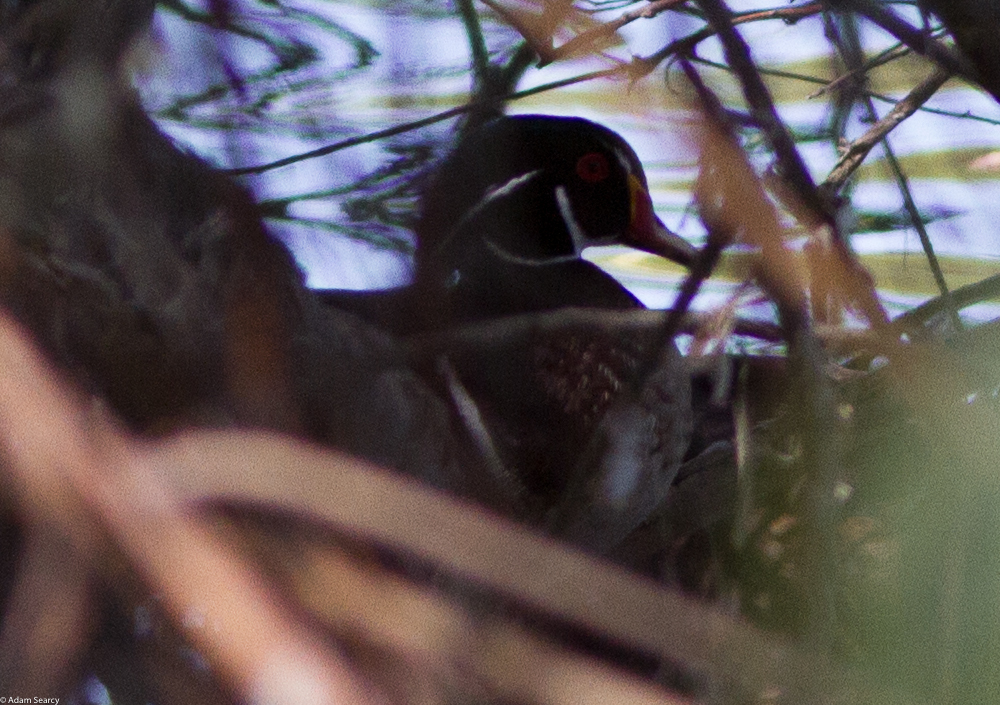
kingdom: Animalia
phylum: Chordata
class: Aves
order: Anseriformes
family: Anatidae
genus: Aix
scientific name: Aix sponsa
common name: Wood duck
